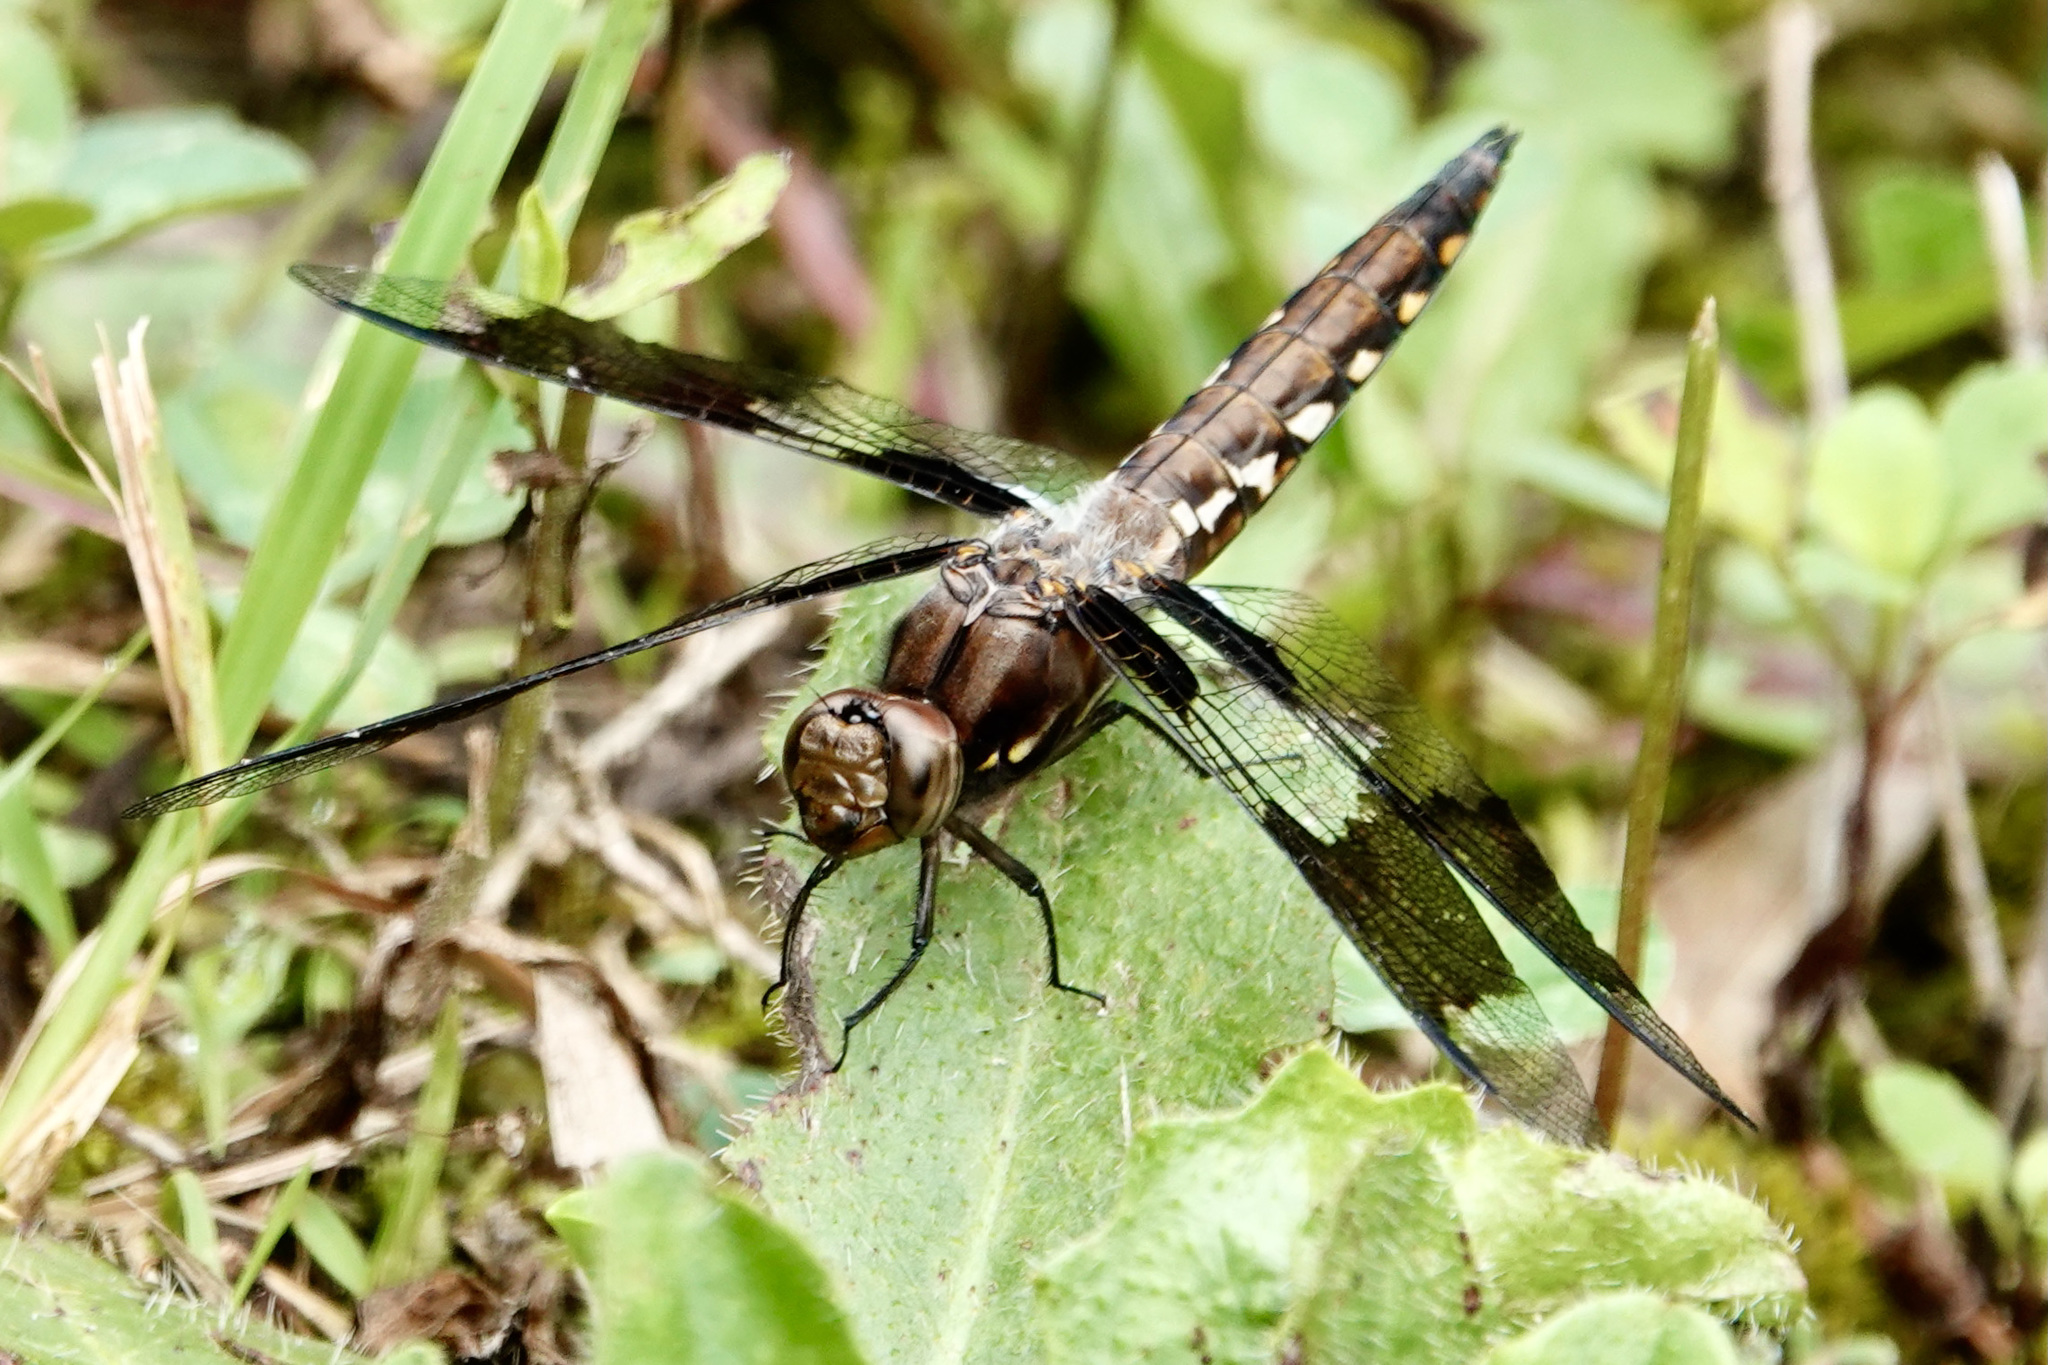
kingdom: Animalia
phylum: Arthropoda
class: Insecta
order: Odonata
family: Libellulidae
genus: Plathemis
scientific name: Plathemis lydia
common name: Common whitetail
